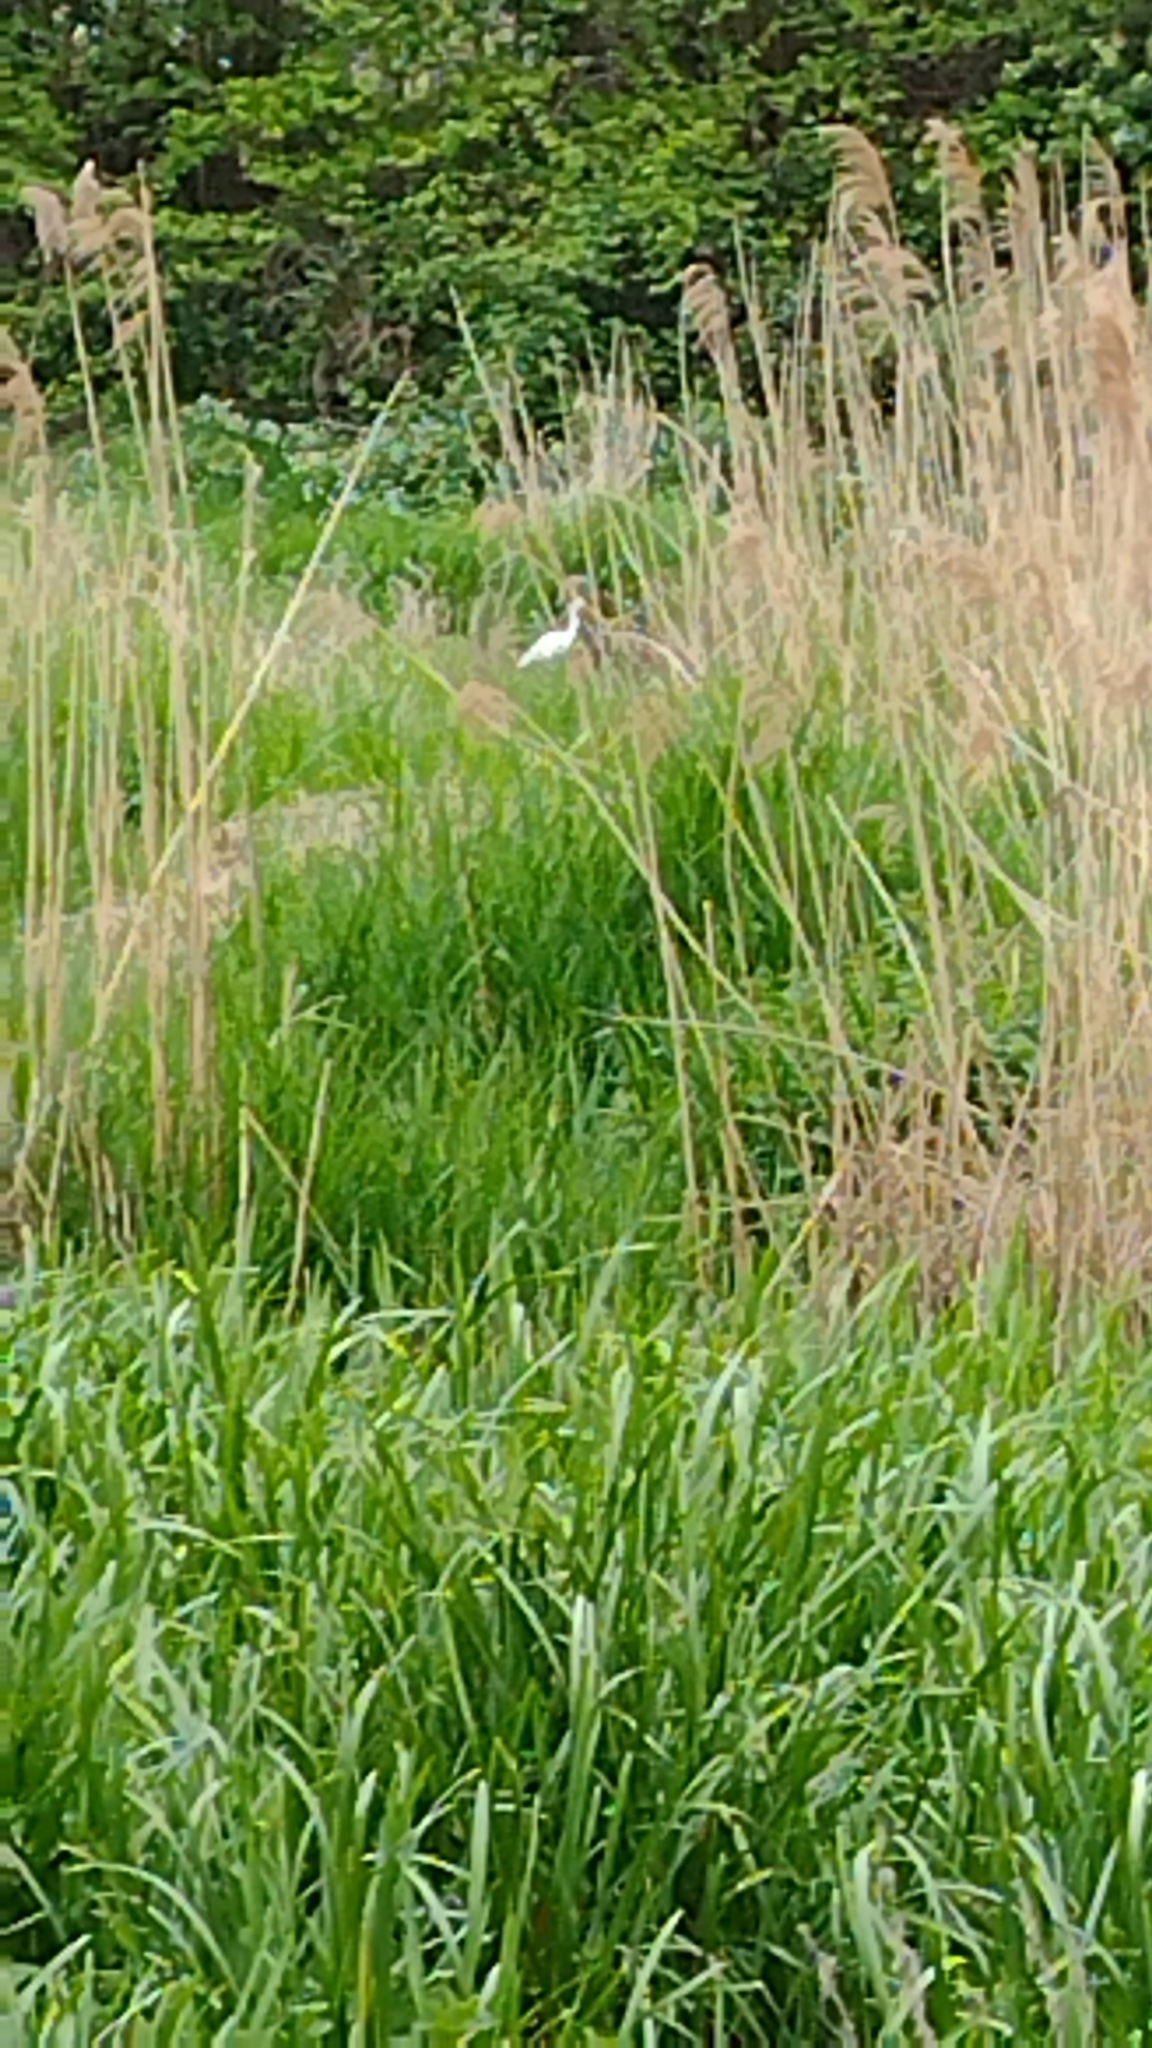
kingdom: Animalia
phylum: Chordata
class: Aves
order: Pelecaniformes
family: Ardeidae
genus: Egretta
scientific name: Egretta garzetta
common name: Little egret
